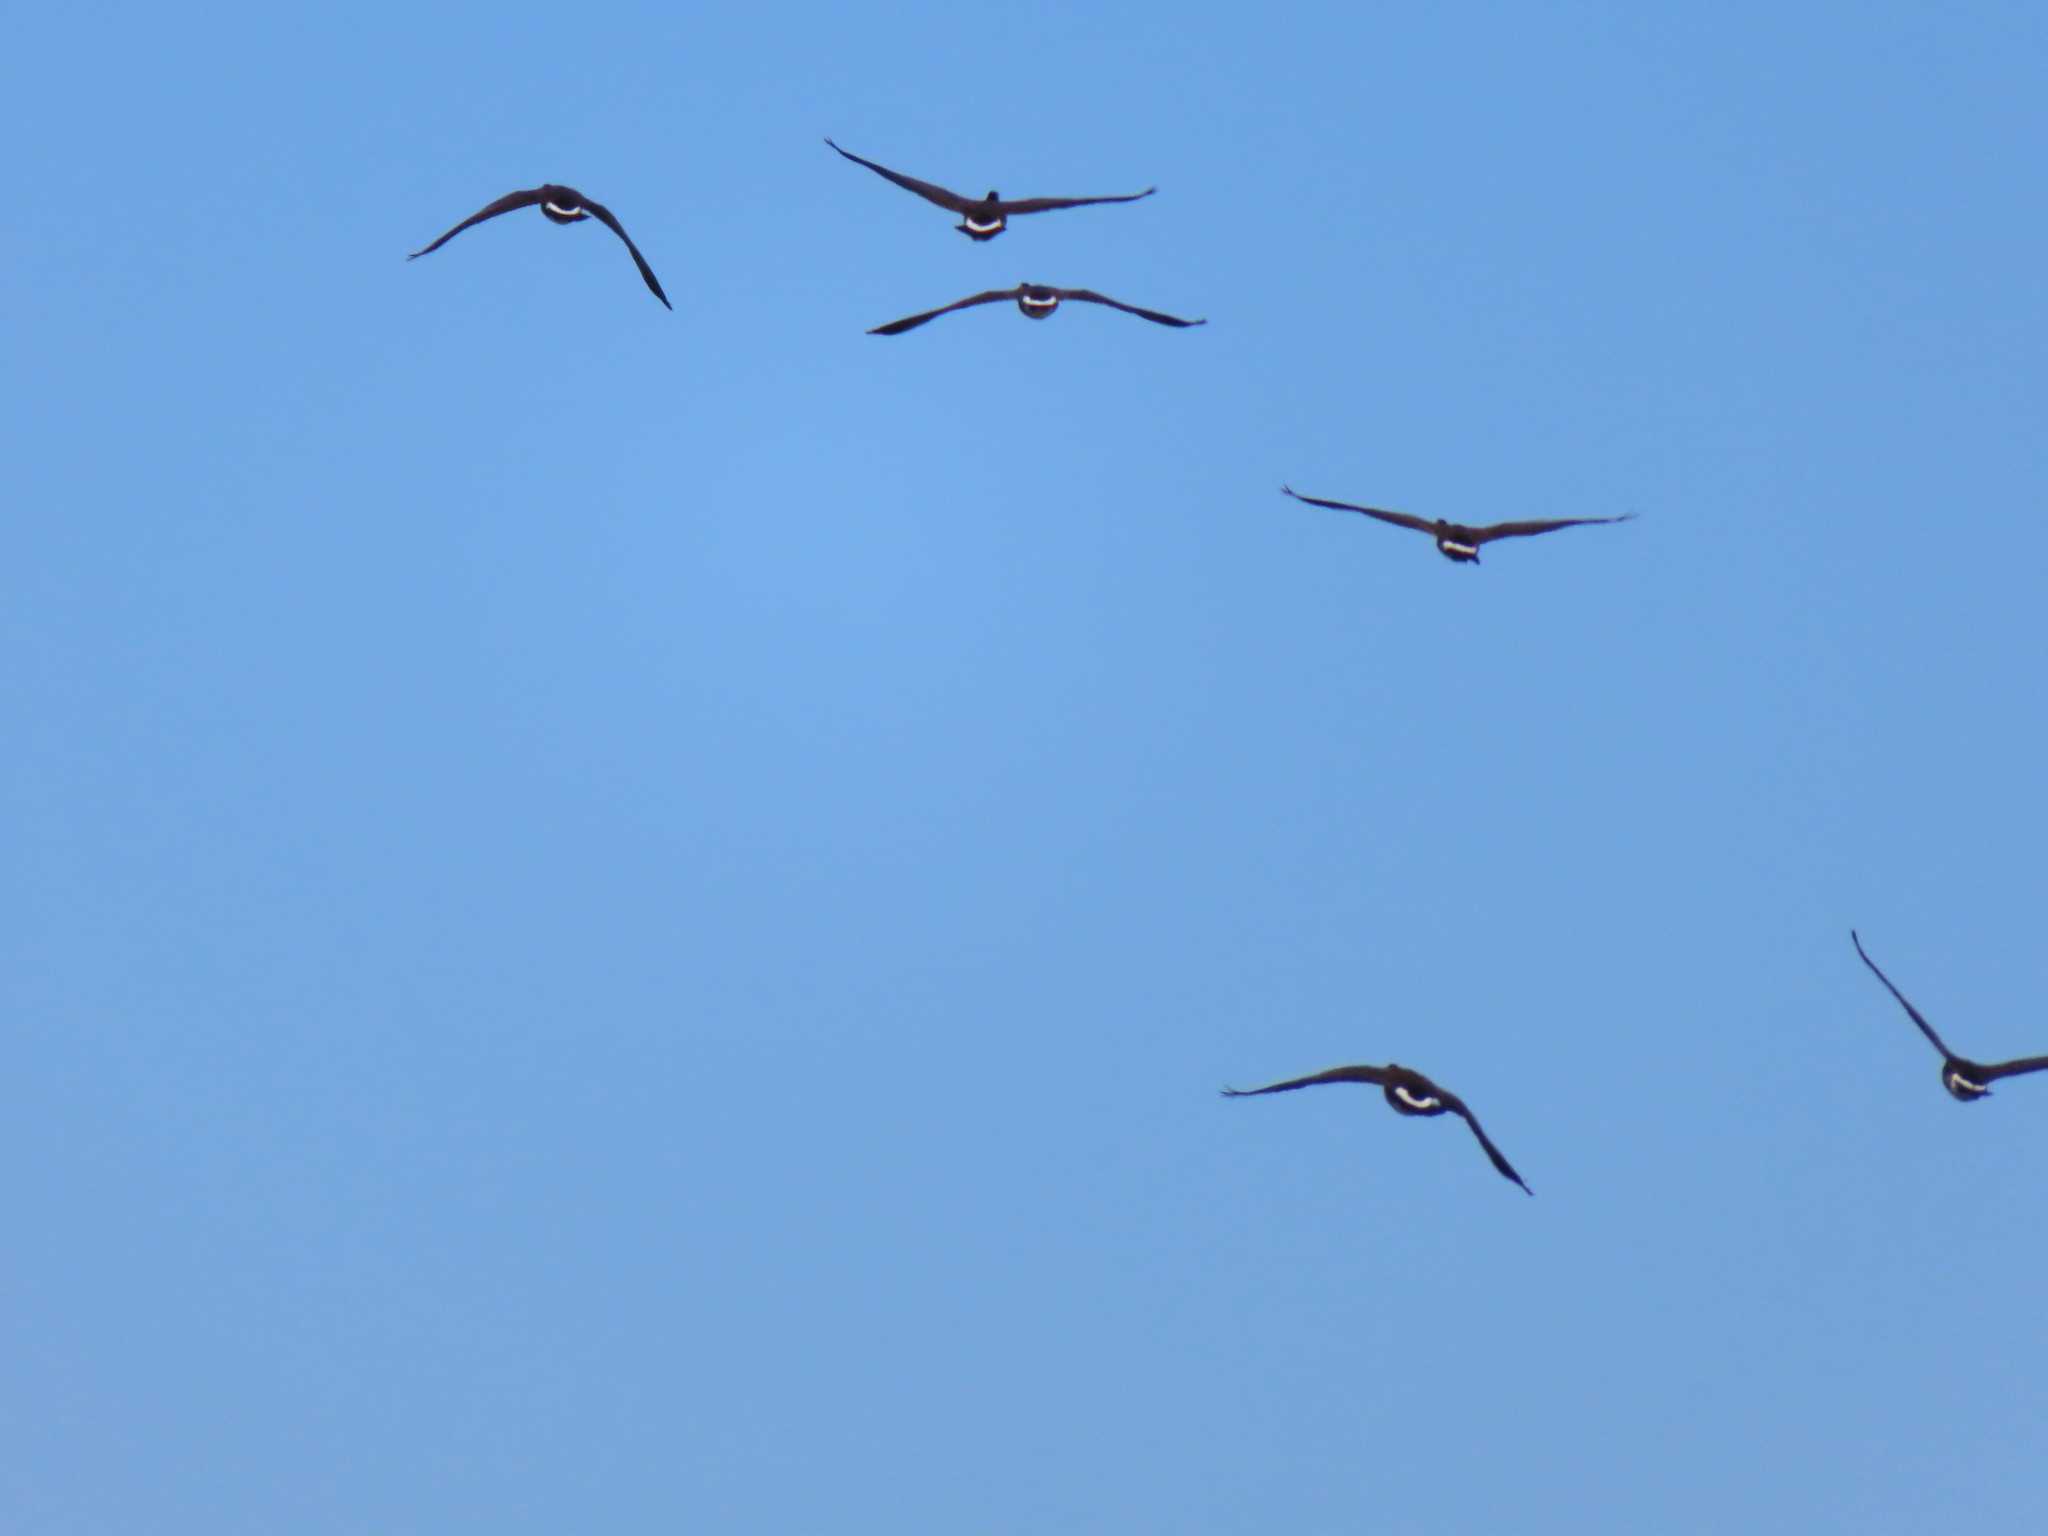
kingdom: Animalia
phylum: Chordata
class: Aves
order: Anseriformes
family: Anatidae
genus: Branta
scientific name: Branta canadensis
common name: Canada goose
